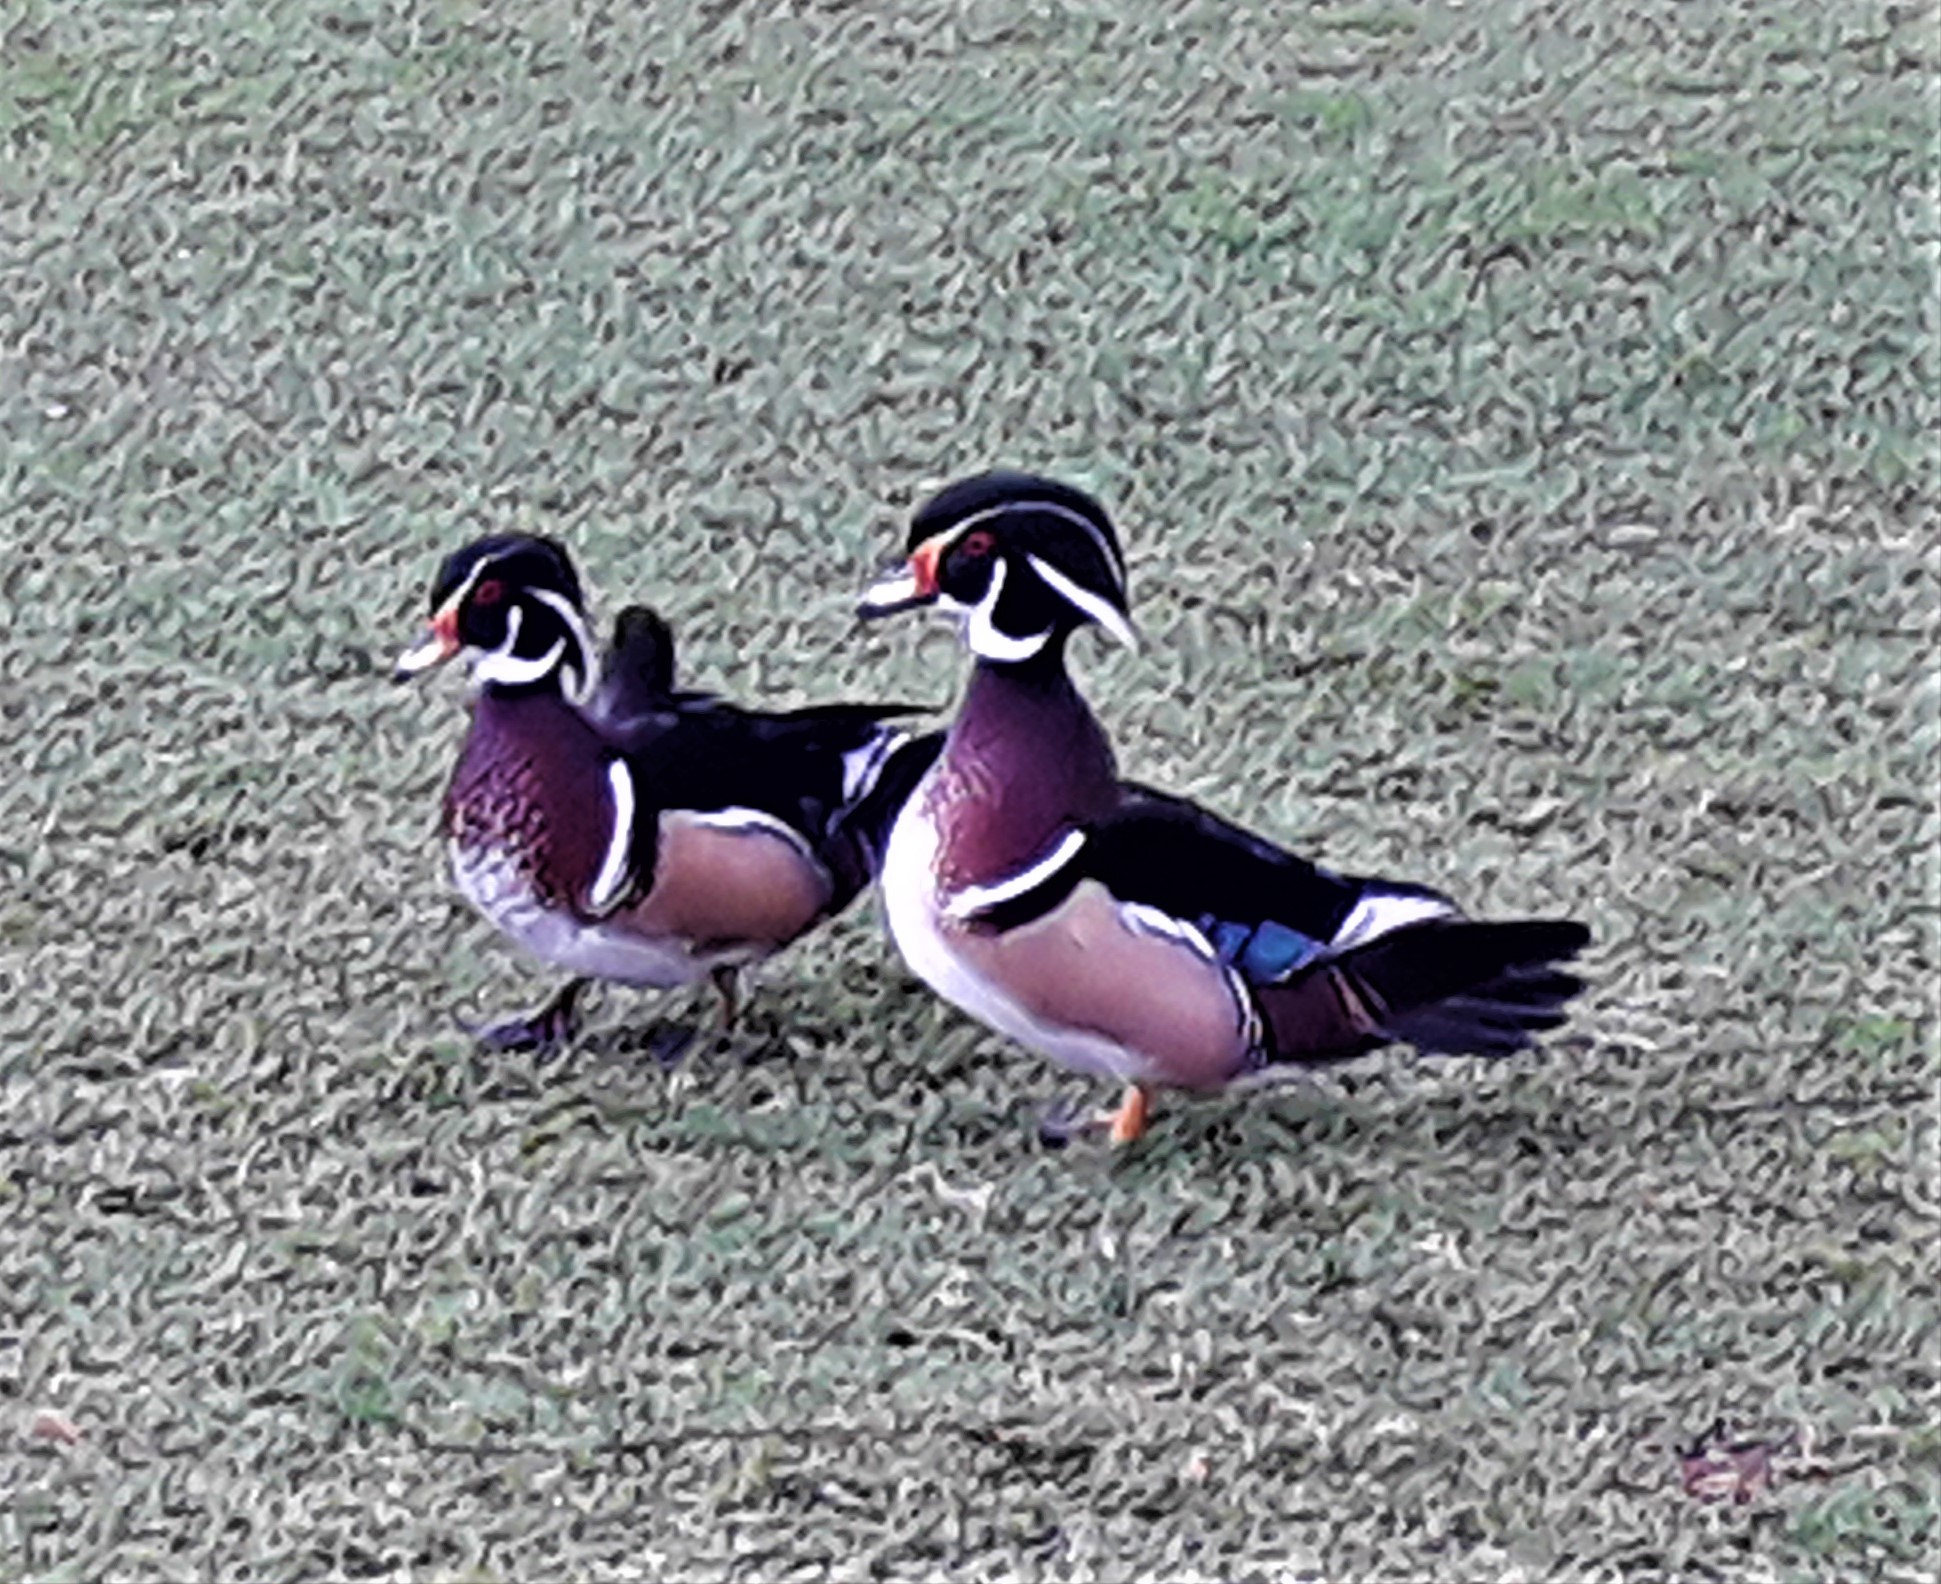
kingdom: Animalia
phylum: Chordata
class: Aves
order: Anseriformes
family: Anatidae
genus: Aix
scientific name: Aix sponsa
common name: Wood duck
